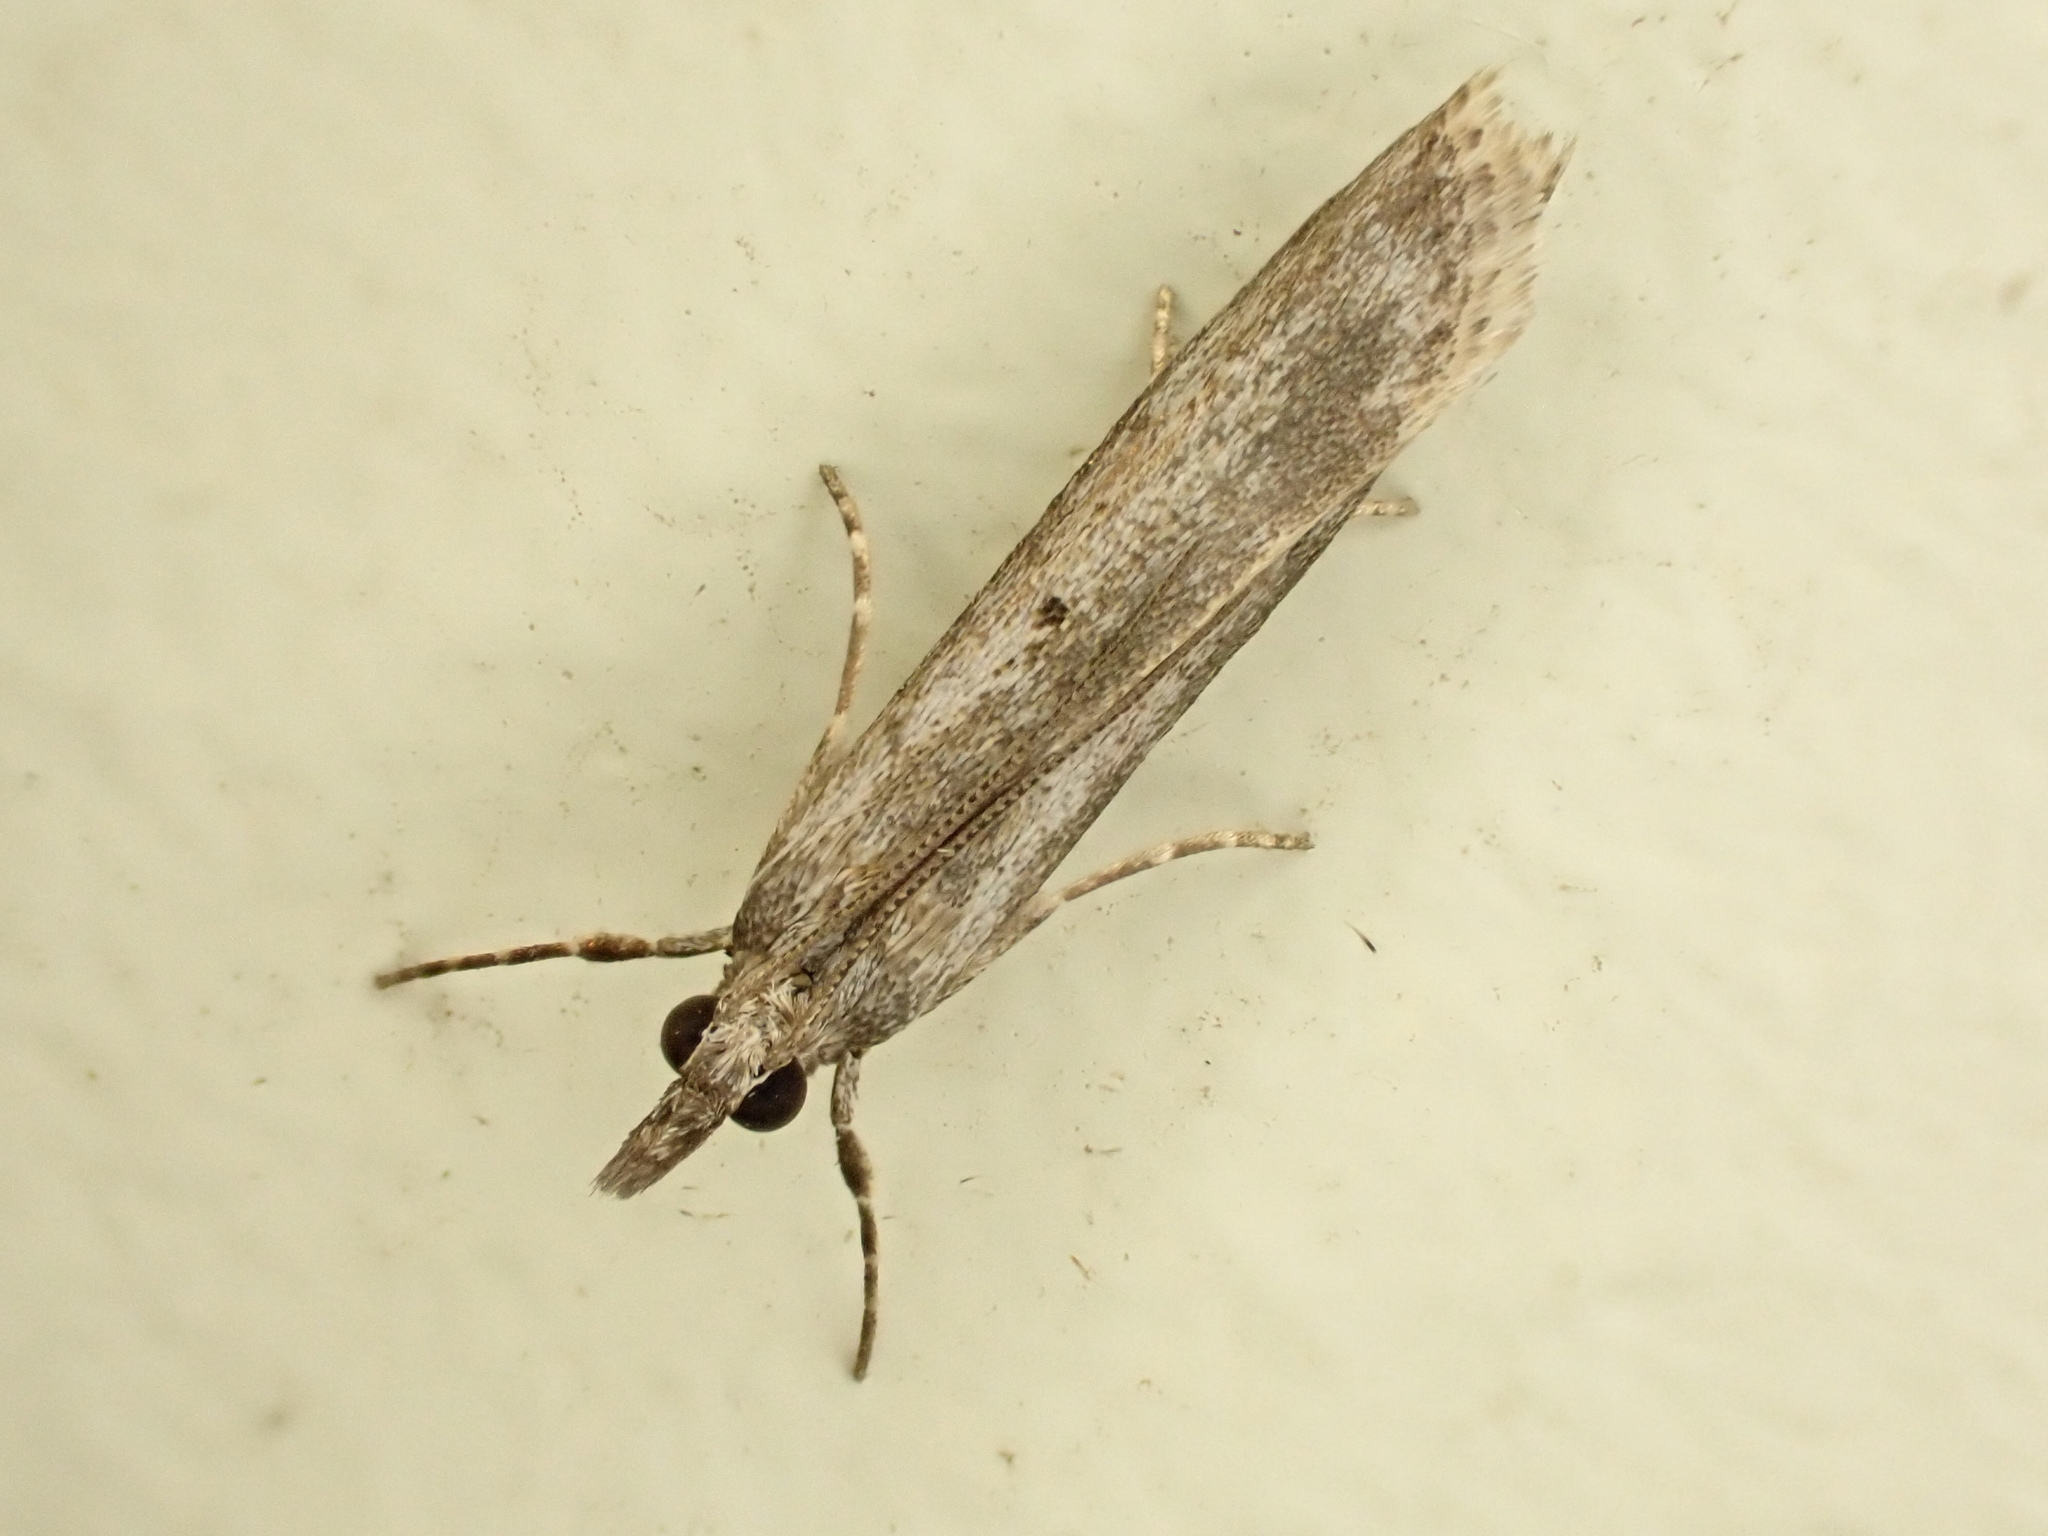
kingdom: Animalia
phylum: Arthropoda
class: Insecta
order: Lepidoptera
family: Crambidae
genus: Eudonia
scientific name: Eudonia leptalea
